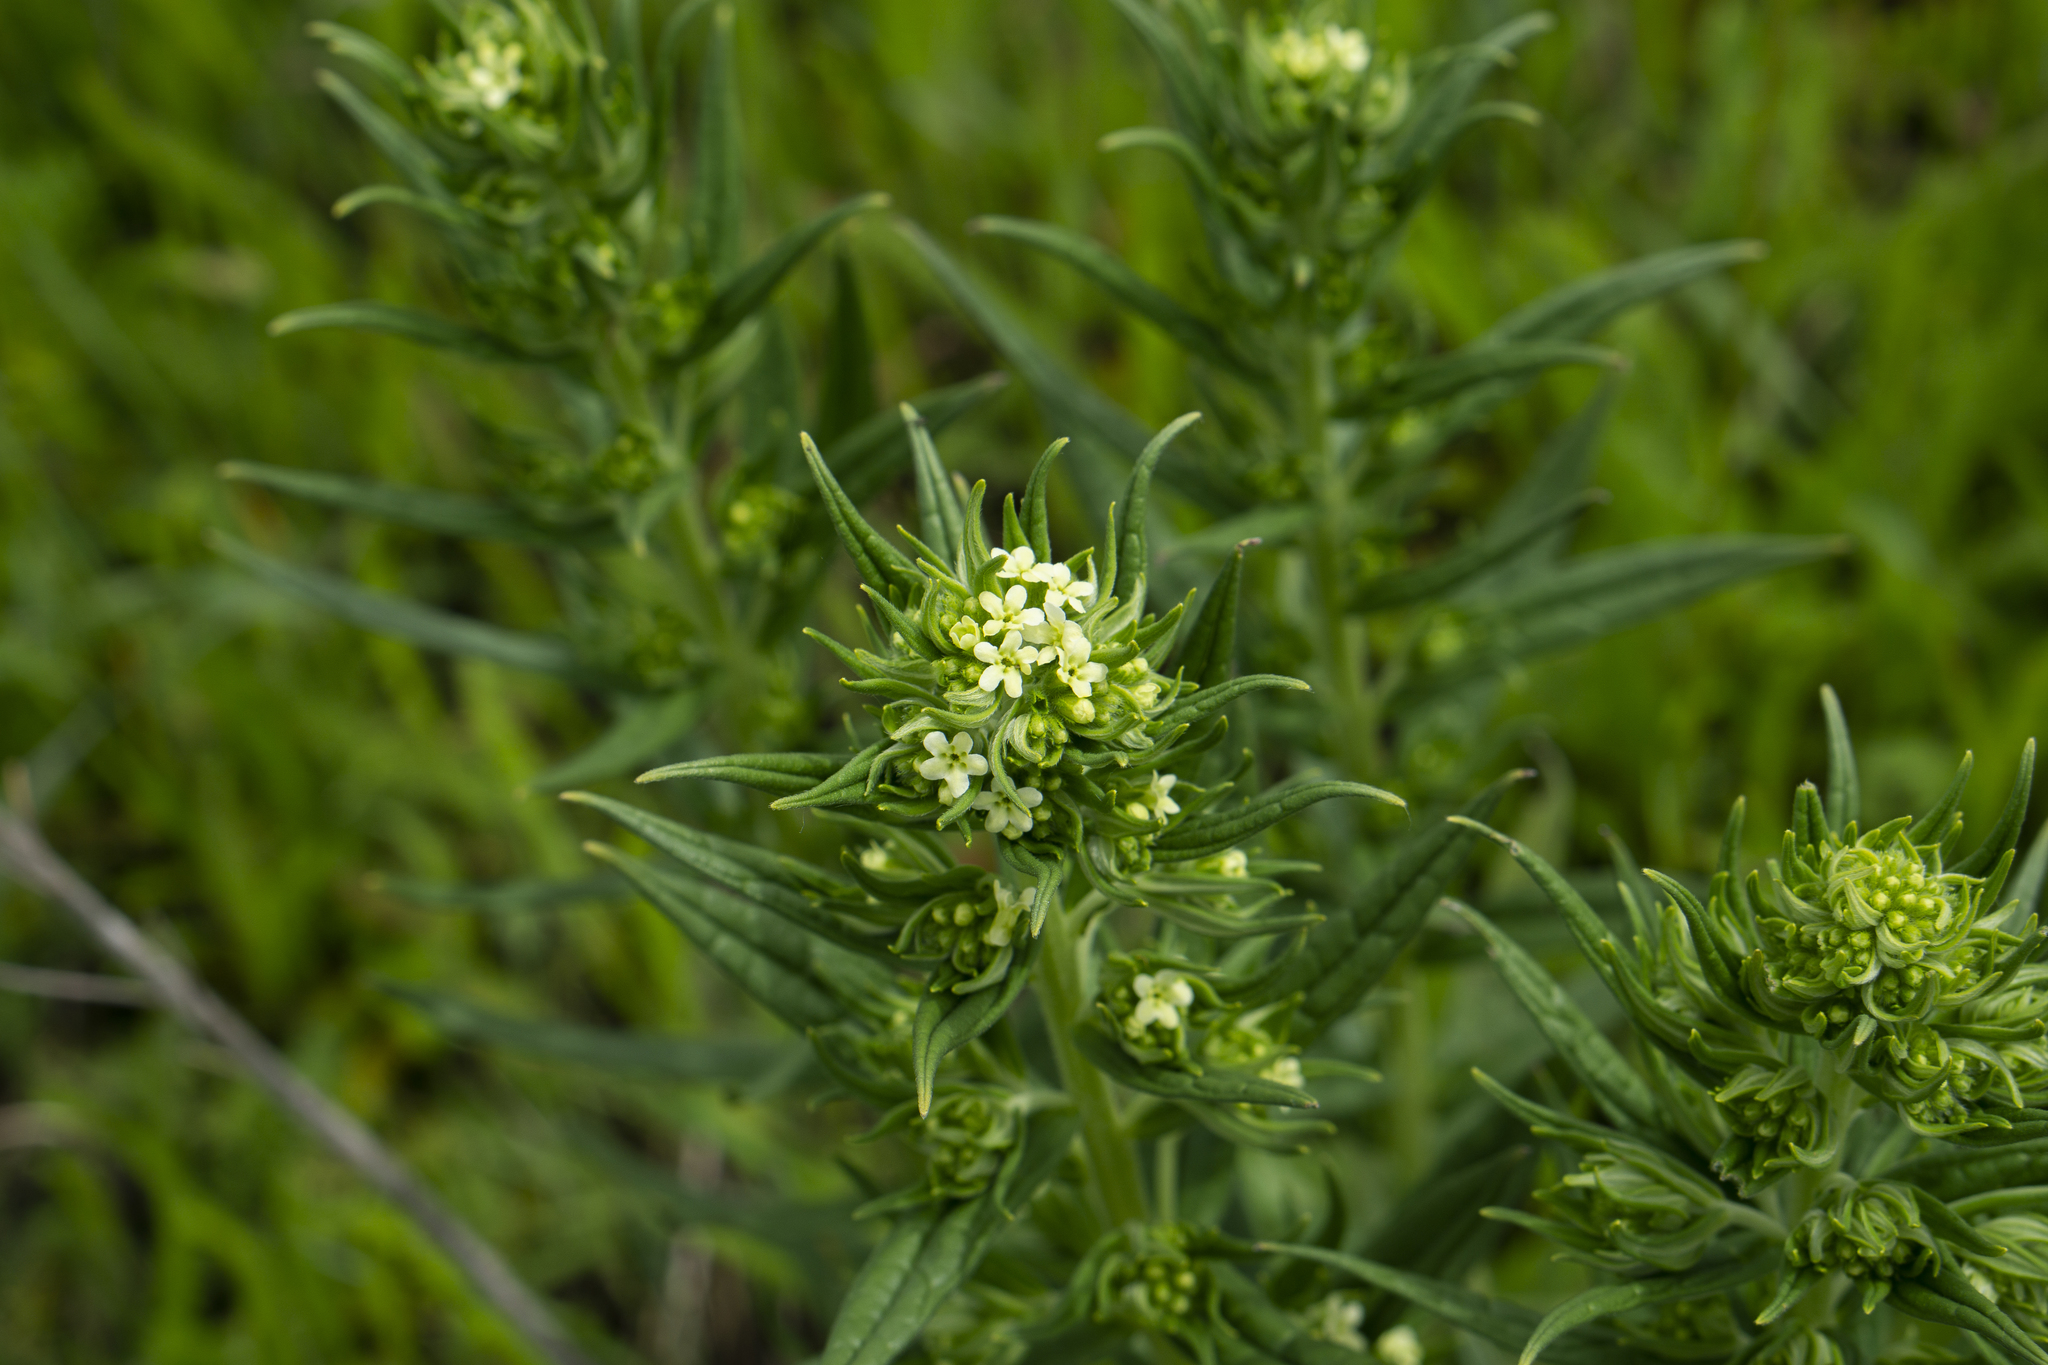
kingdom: Plantae
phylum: Tracheophyta
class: Magnoliopsida
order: Boraginales
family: Boraginaceae
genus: Lithospermum
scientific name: Lithospermum officinale
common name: Common gromwell
